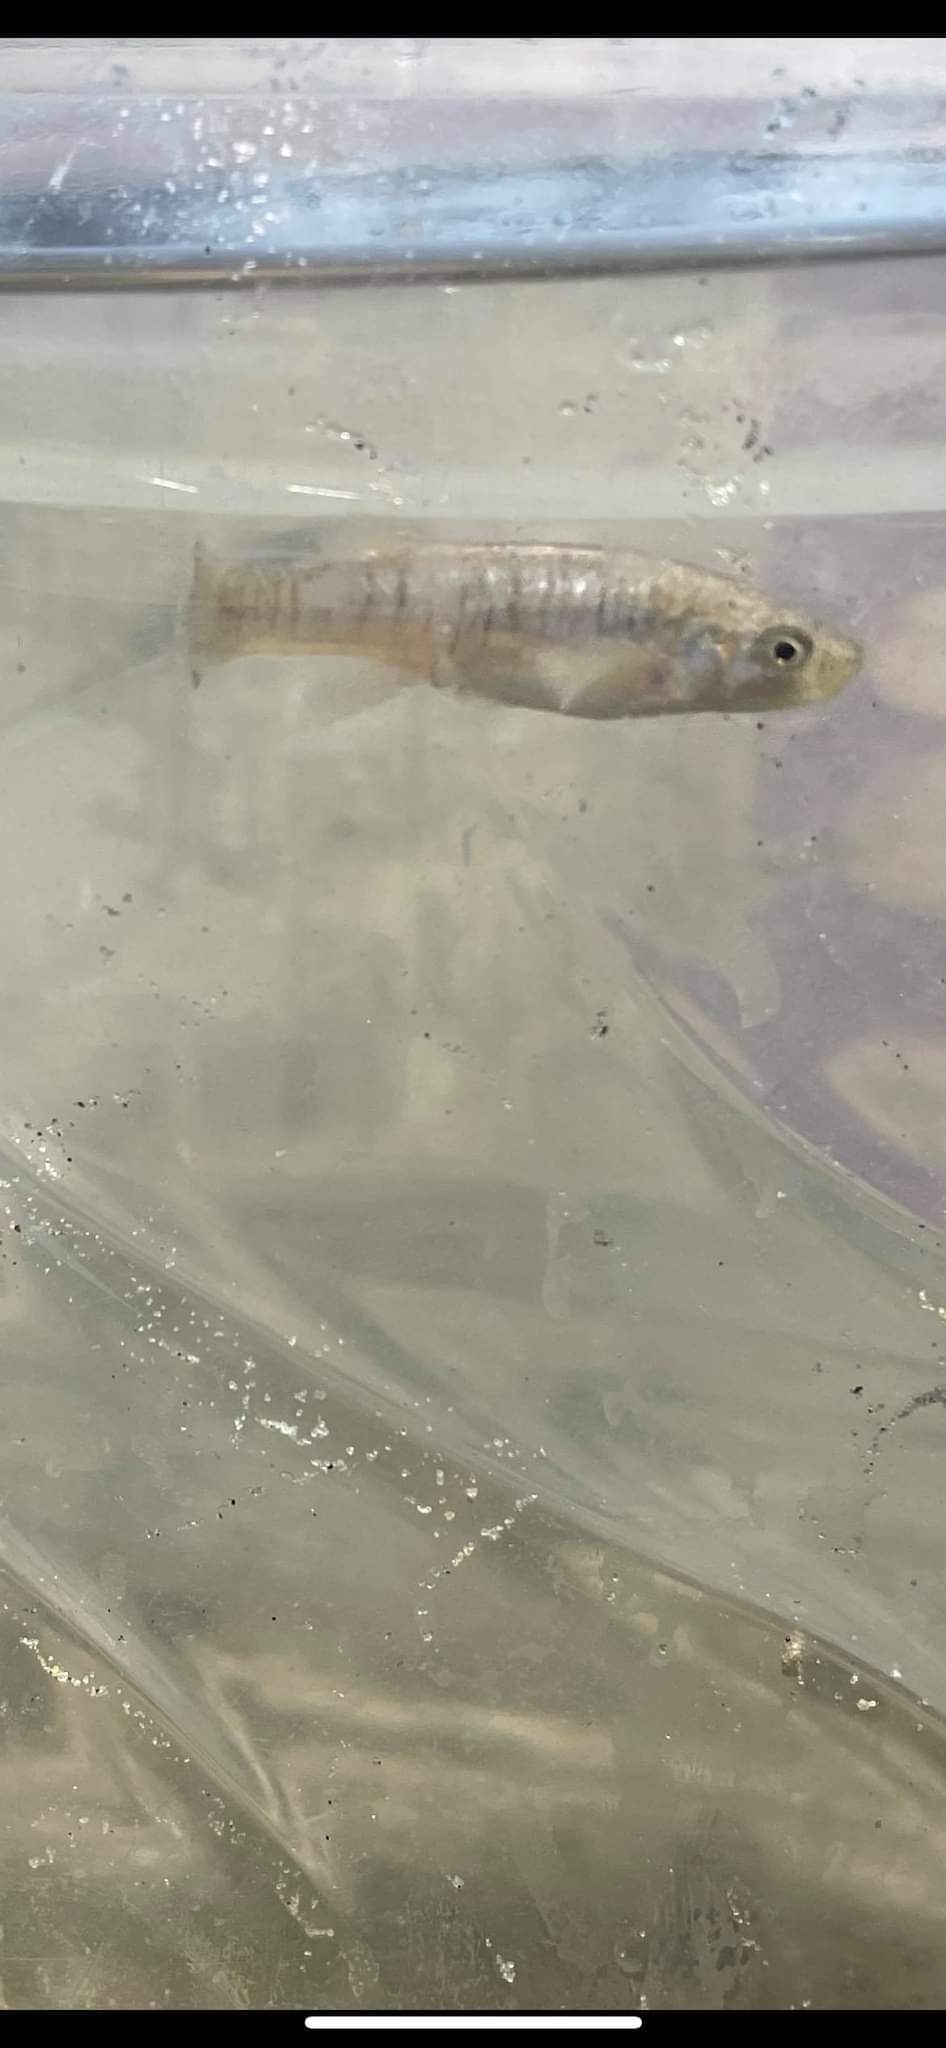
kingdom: Animalia
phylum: Chordata
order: Cyprinodontiformes
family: Fundulidae
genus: Fundulus
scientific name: Fundulus heteroclitus
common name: Mummichog
